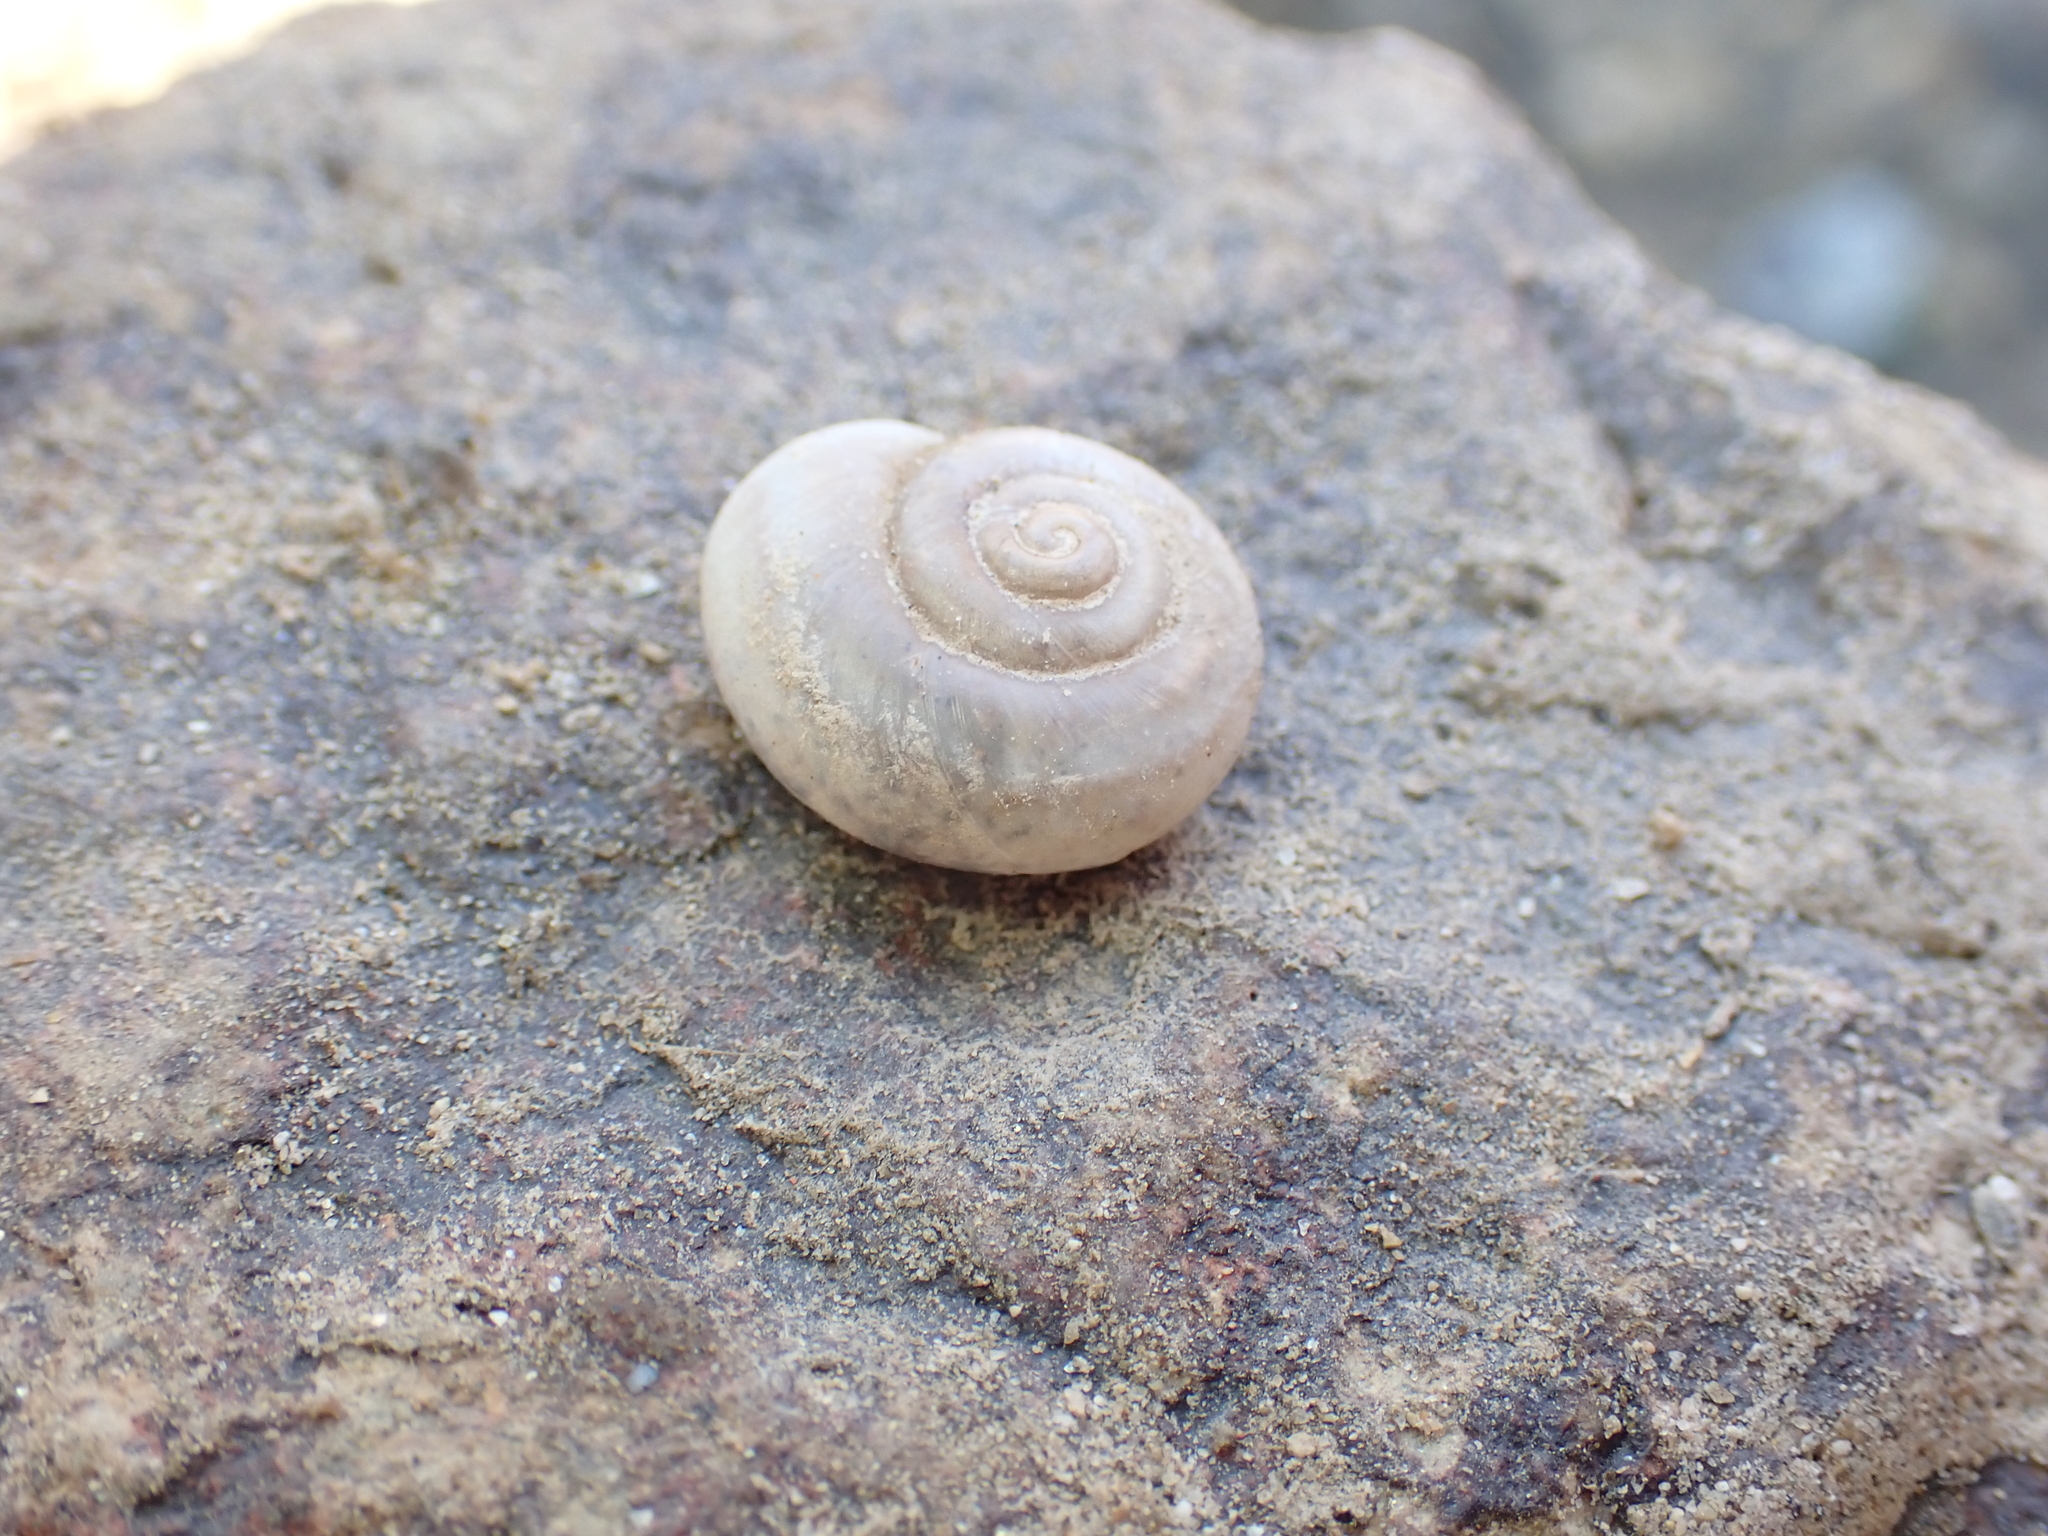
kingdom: Animalia
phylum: Mollusca
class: Gastropoda
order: Stylommatophora
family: Xanthonychidae
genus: Cahuillus
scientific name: Cahuillus fultoni
